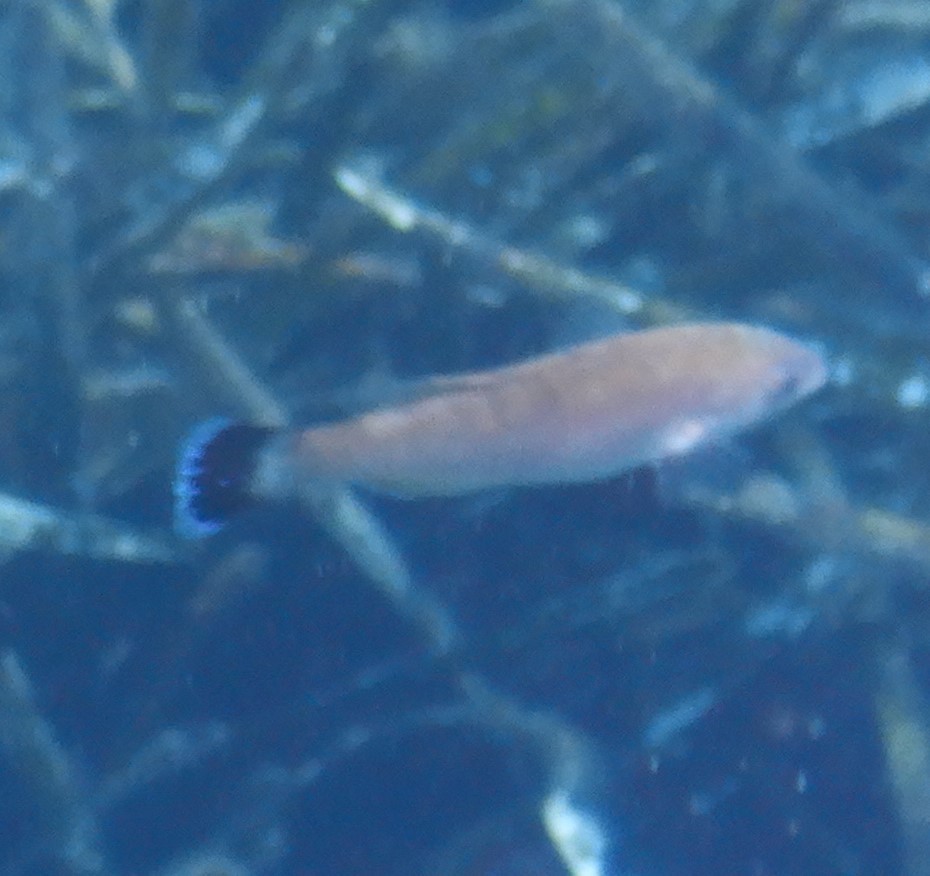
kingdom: Animalia
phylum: Chordata
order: Perciformes
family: Labridae
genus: Centrolabrus
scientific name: Centrolabrus melanocercus
